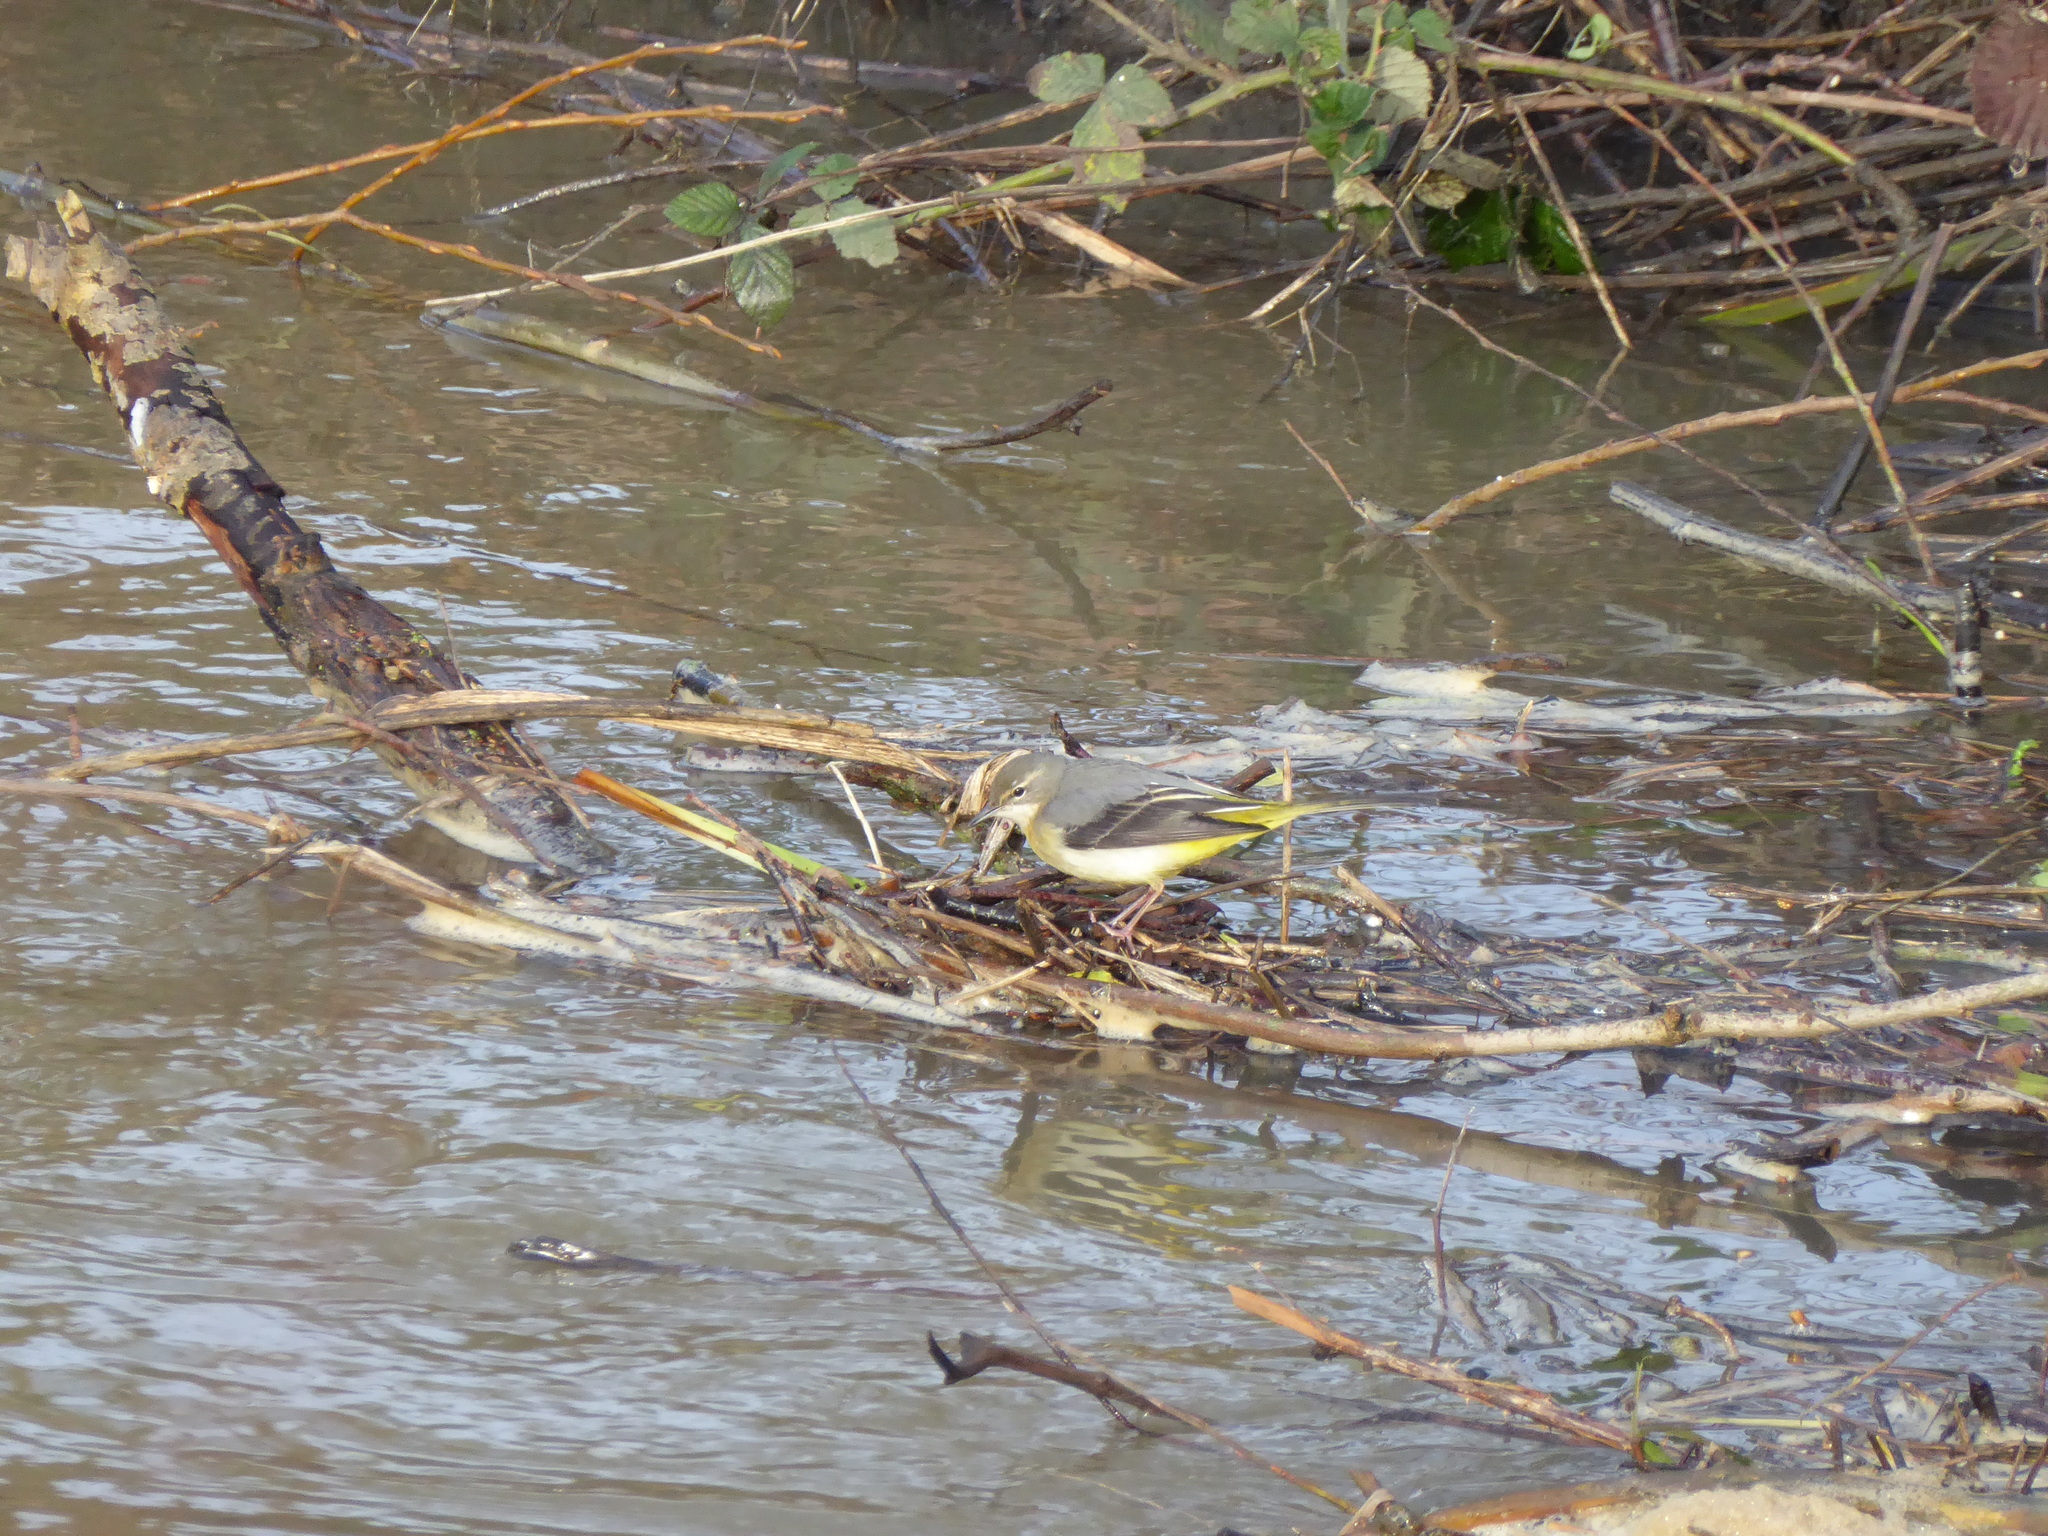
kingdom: Animalia
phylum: Chordata
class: Aves
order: Passeriformes
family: Motacillidae
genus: Motacilla
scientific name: Motacilla cinerea
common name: Grey wagtail
